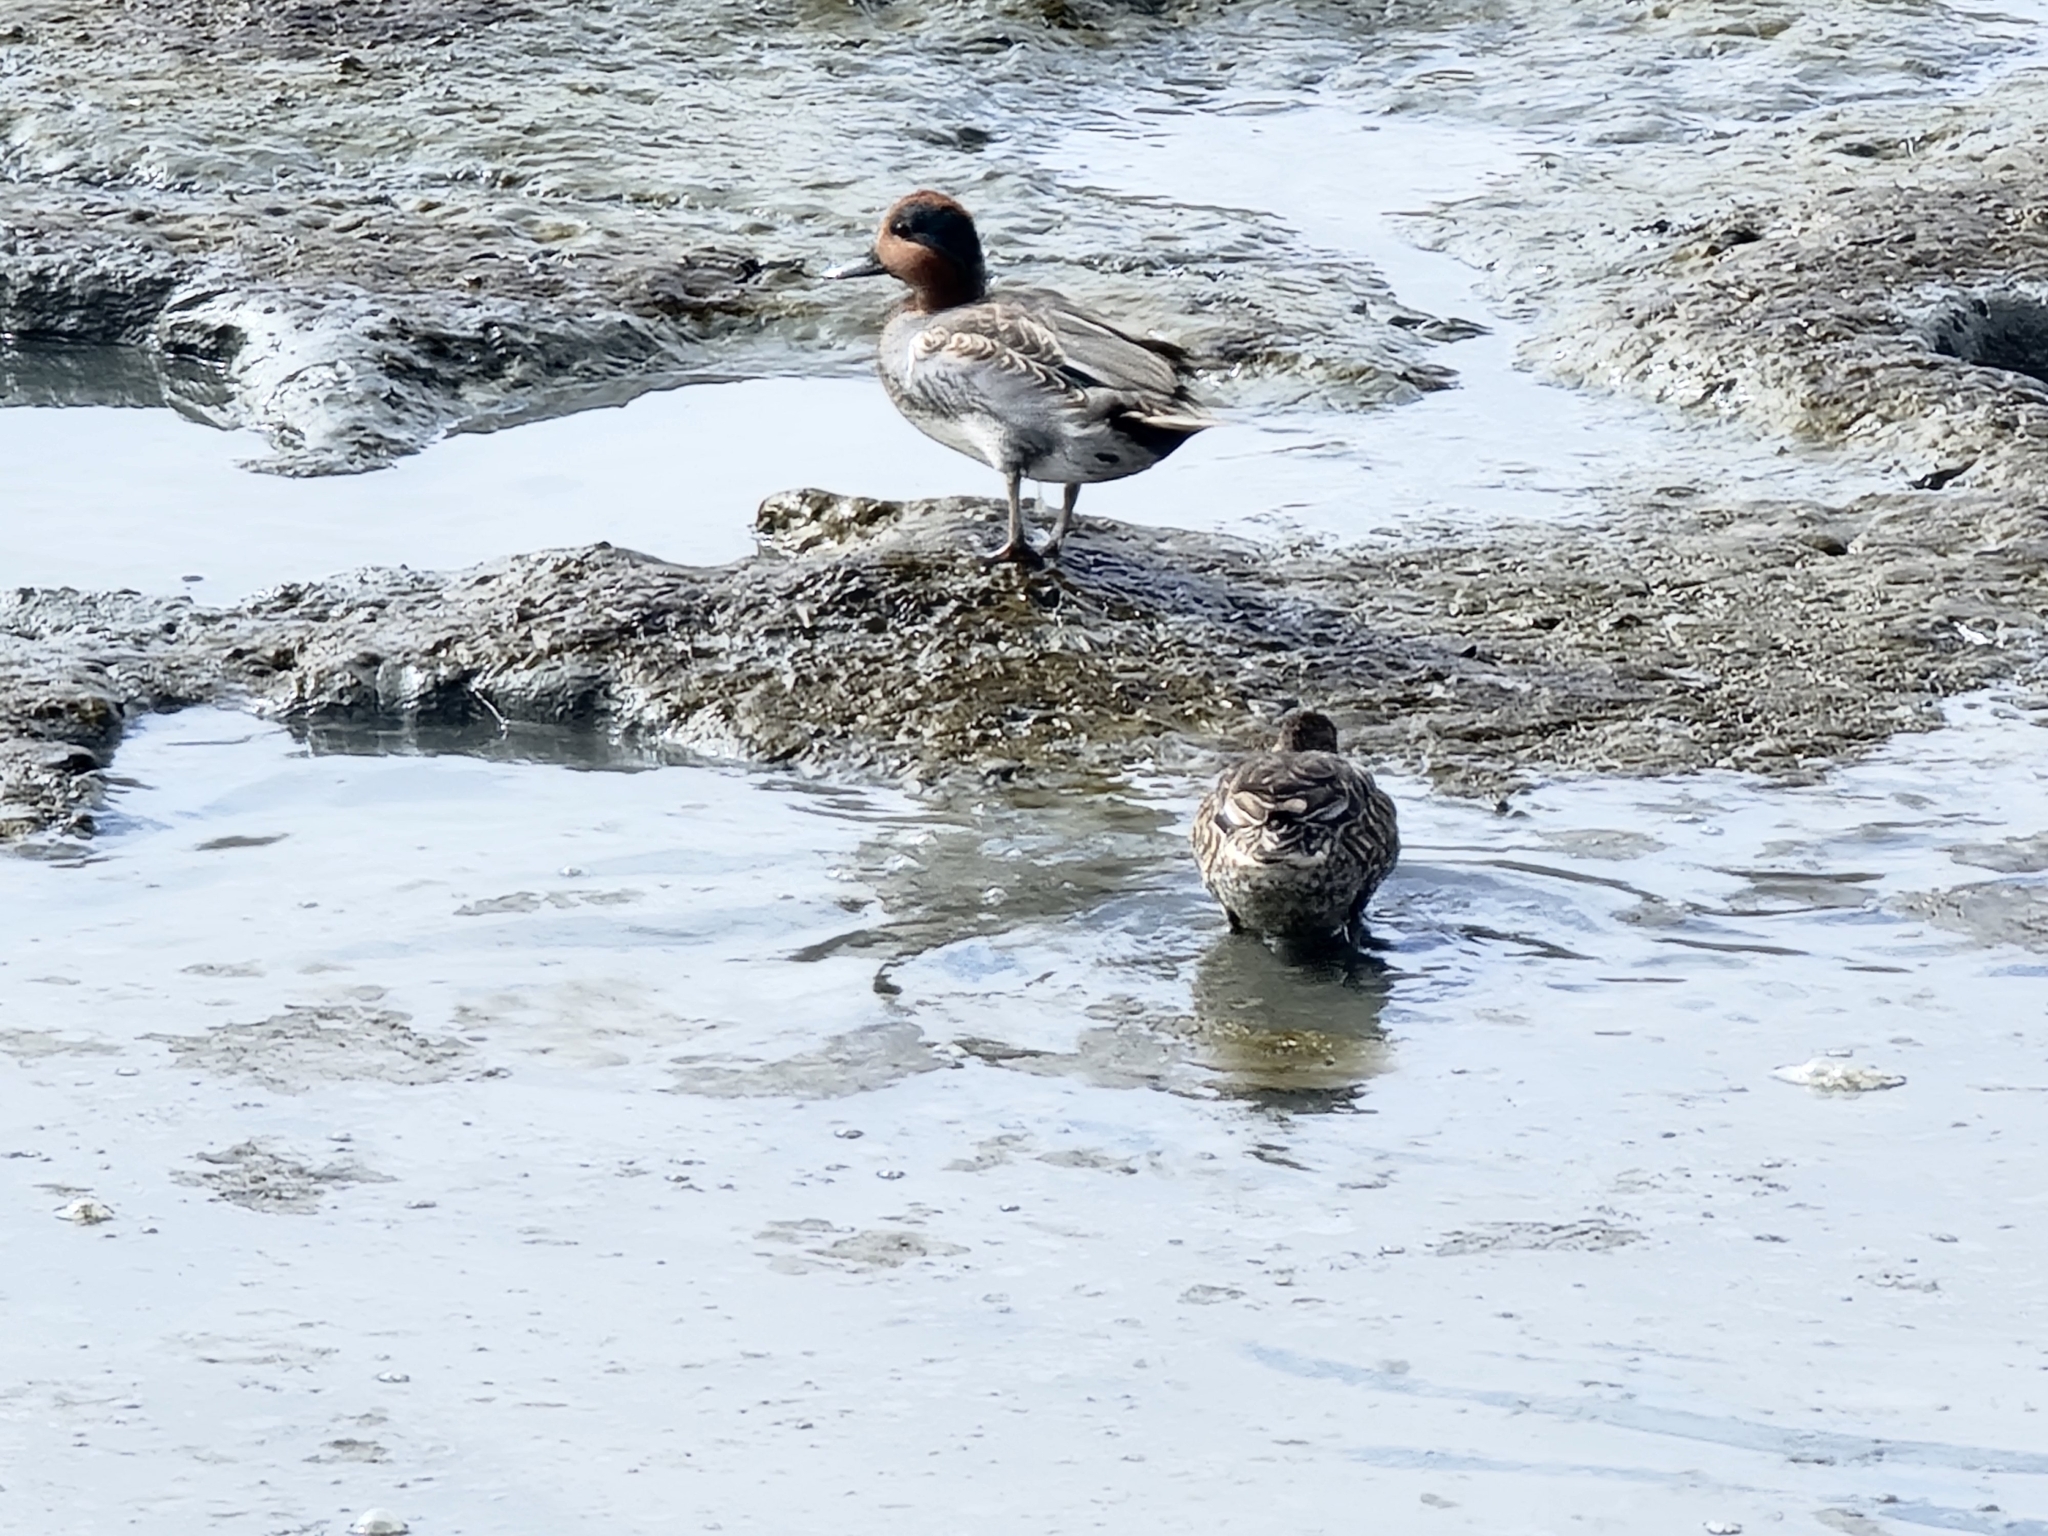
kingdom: Animalia
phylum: Chordata
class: Aves
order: Anseriformes
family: Anatidae
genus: Anas
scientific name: Anas crecca
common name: Eurasian teal
